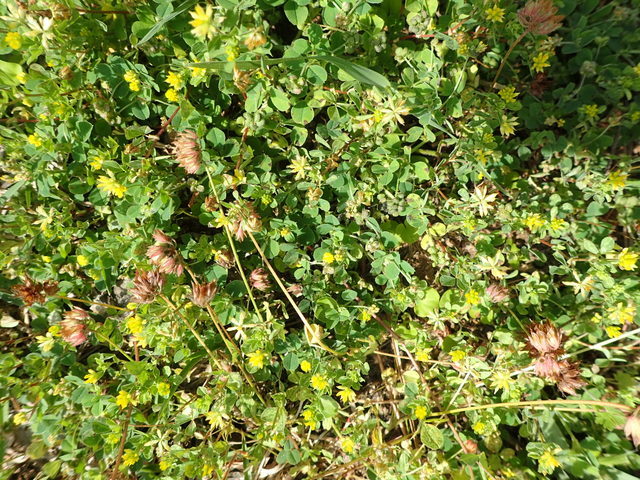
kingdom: Plantae
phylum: Tracheophyta
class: Magnoliopsida
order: Fabales
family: Fabaceae
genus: Trifolium
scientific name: Trifolium dubium
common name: Suckling clover
